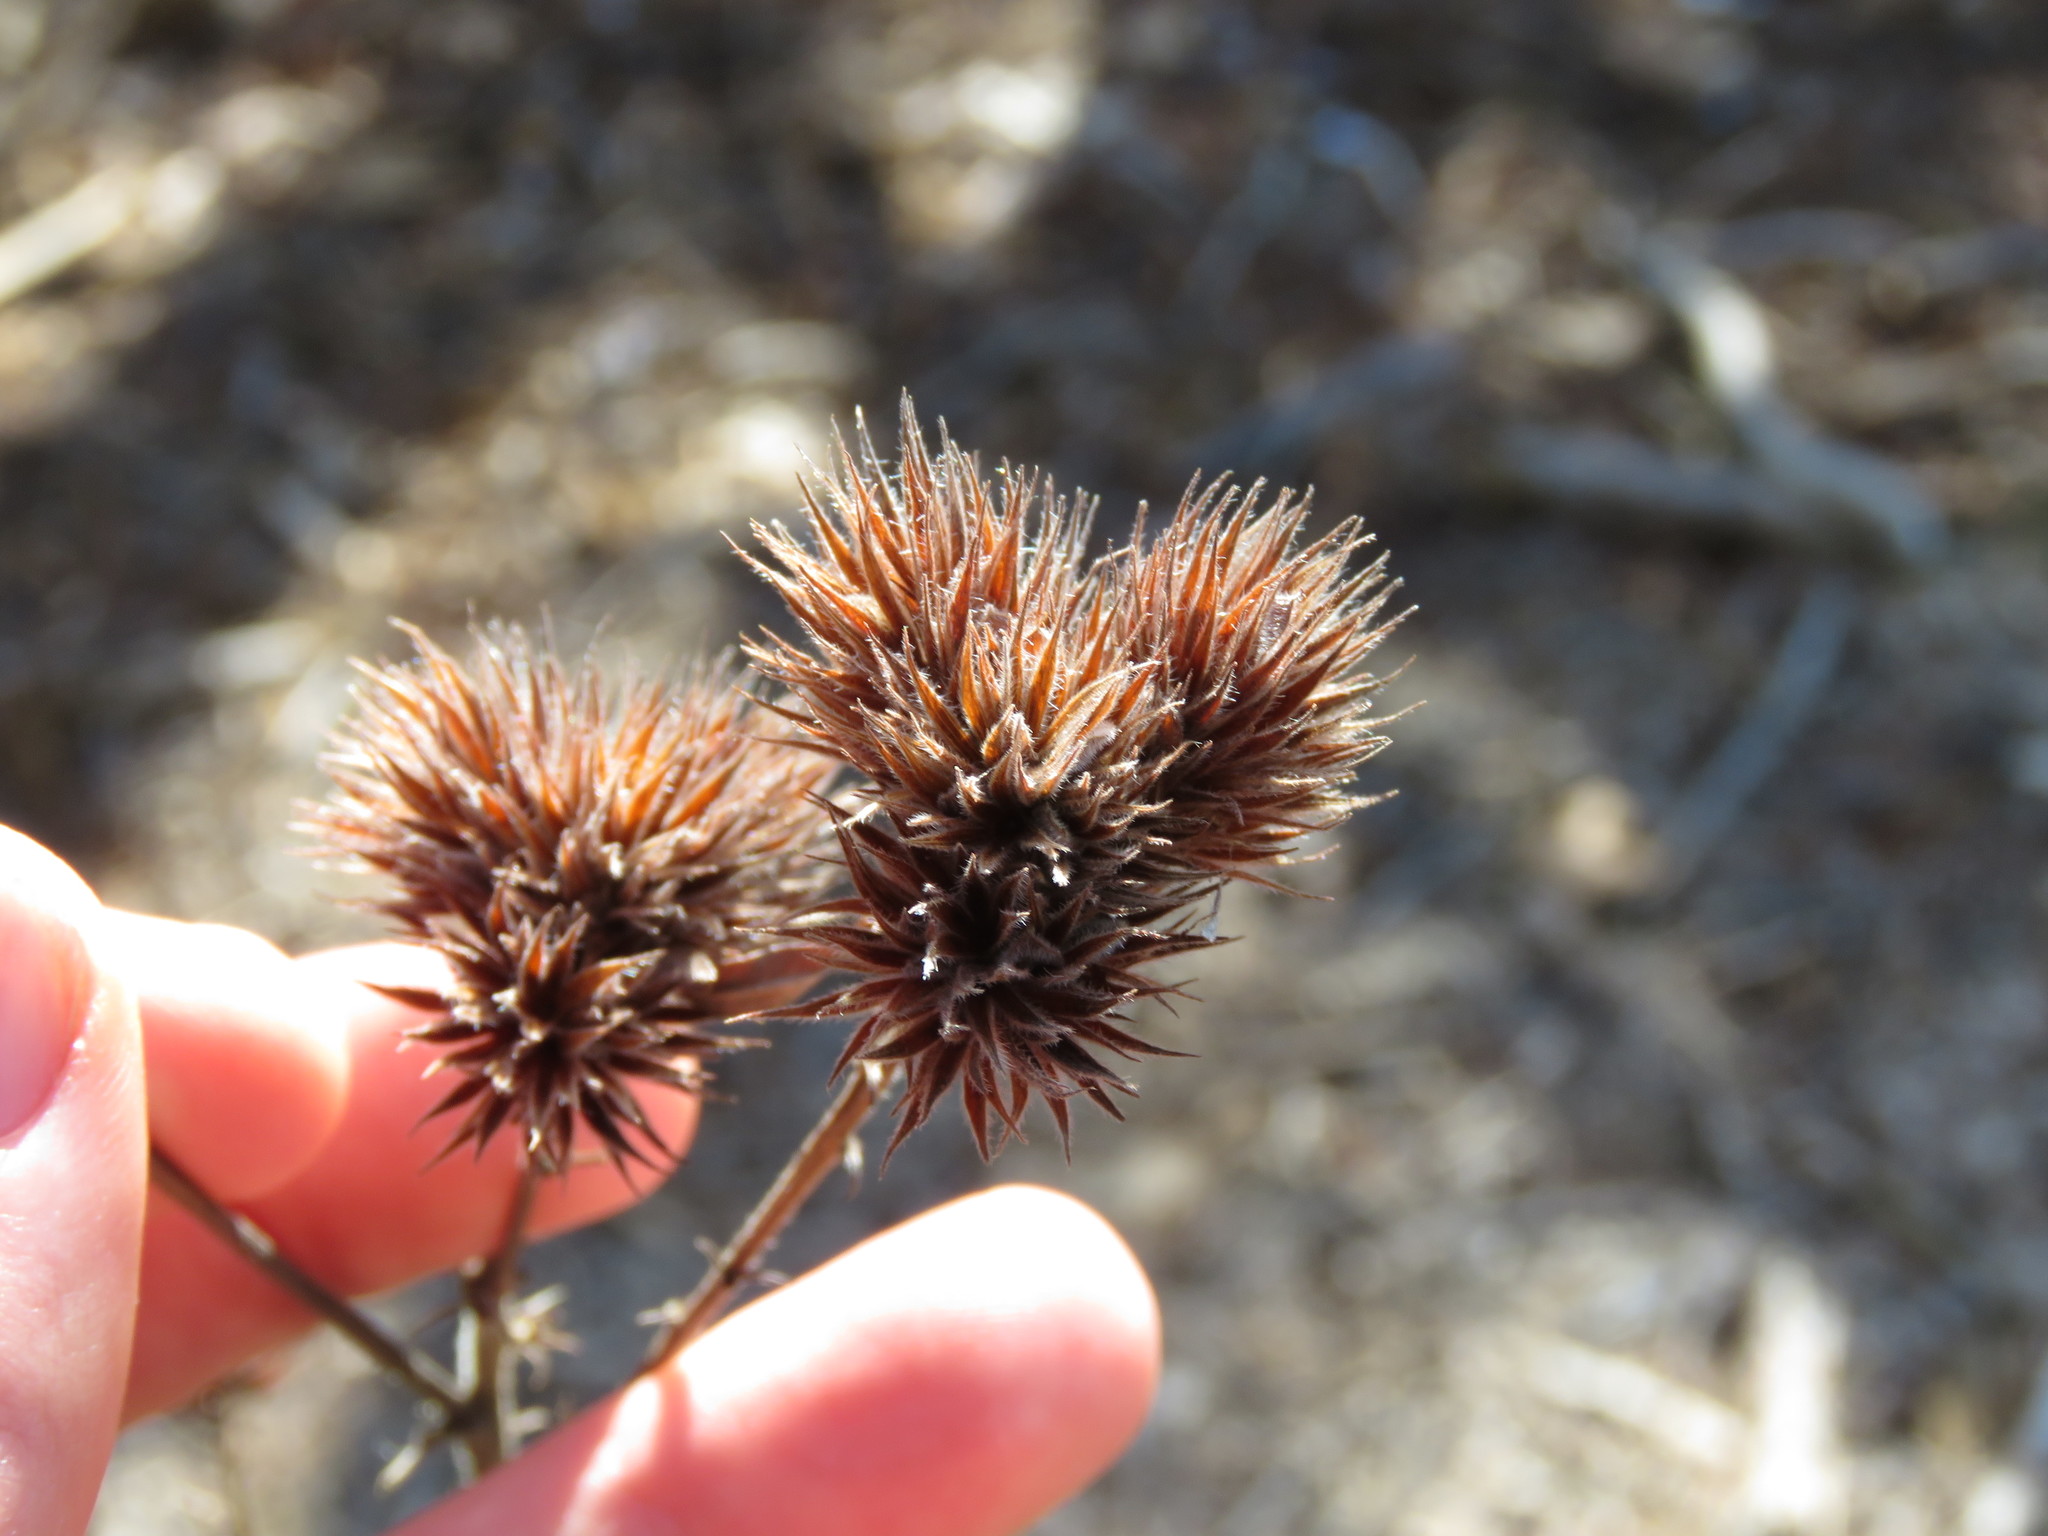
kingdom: Plantae
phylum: Tracheophyta
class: Magnoliopsida
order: Fabales
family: Fabaceae
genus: Lespedeza
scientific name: Lespedeza capitata
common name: Dusty clover
